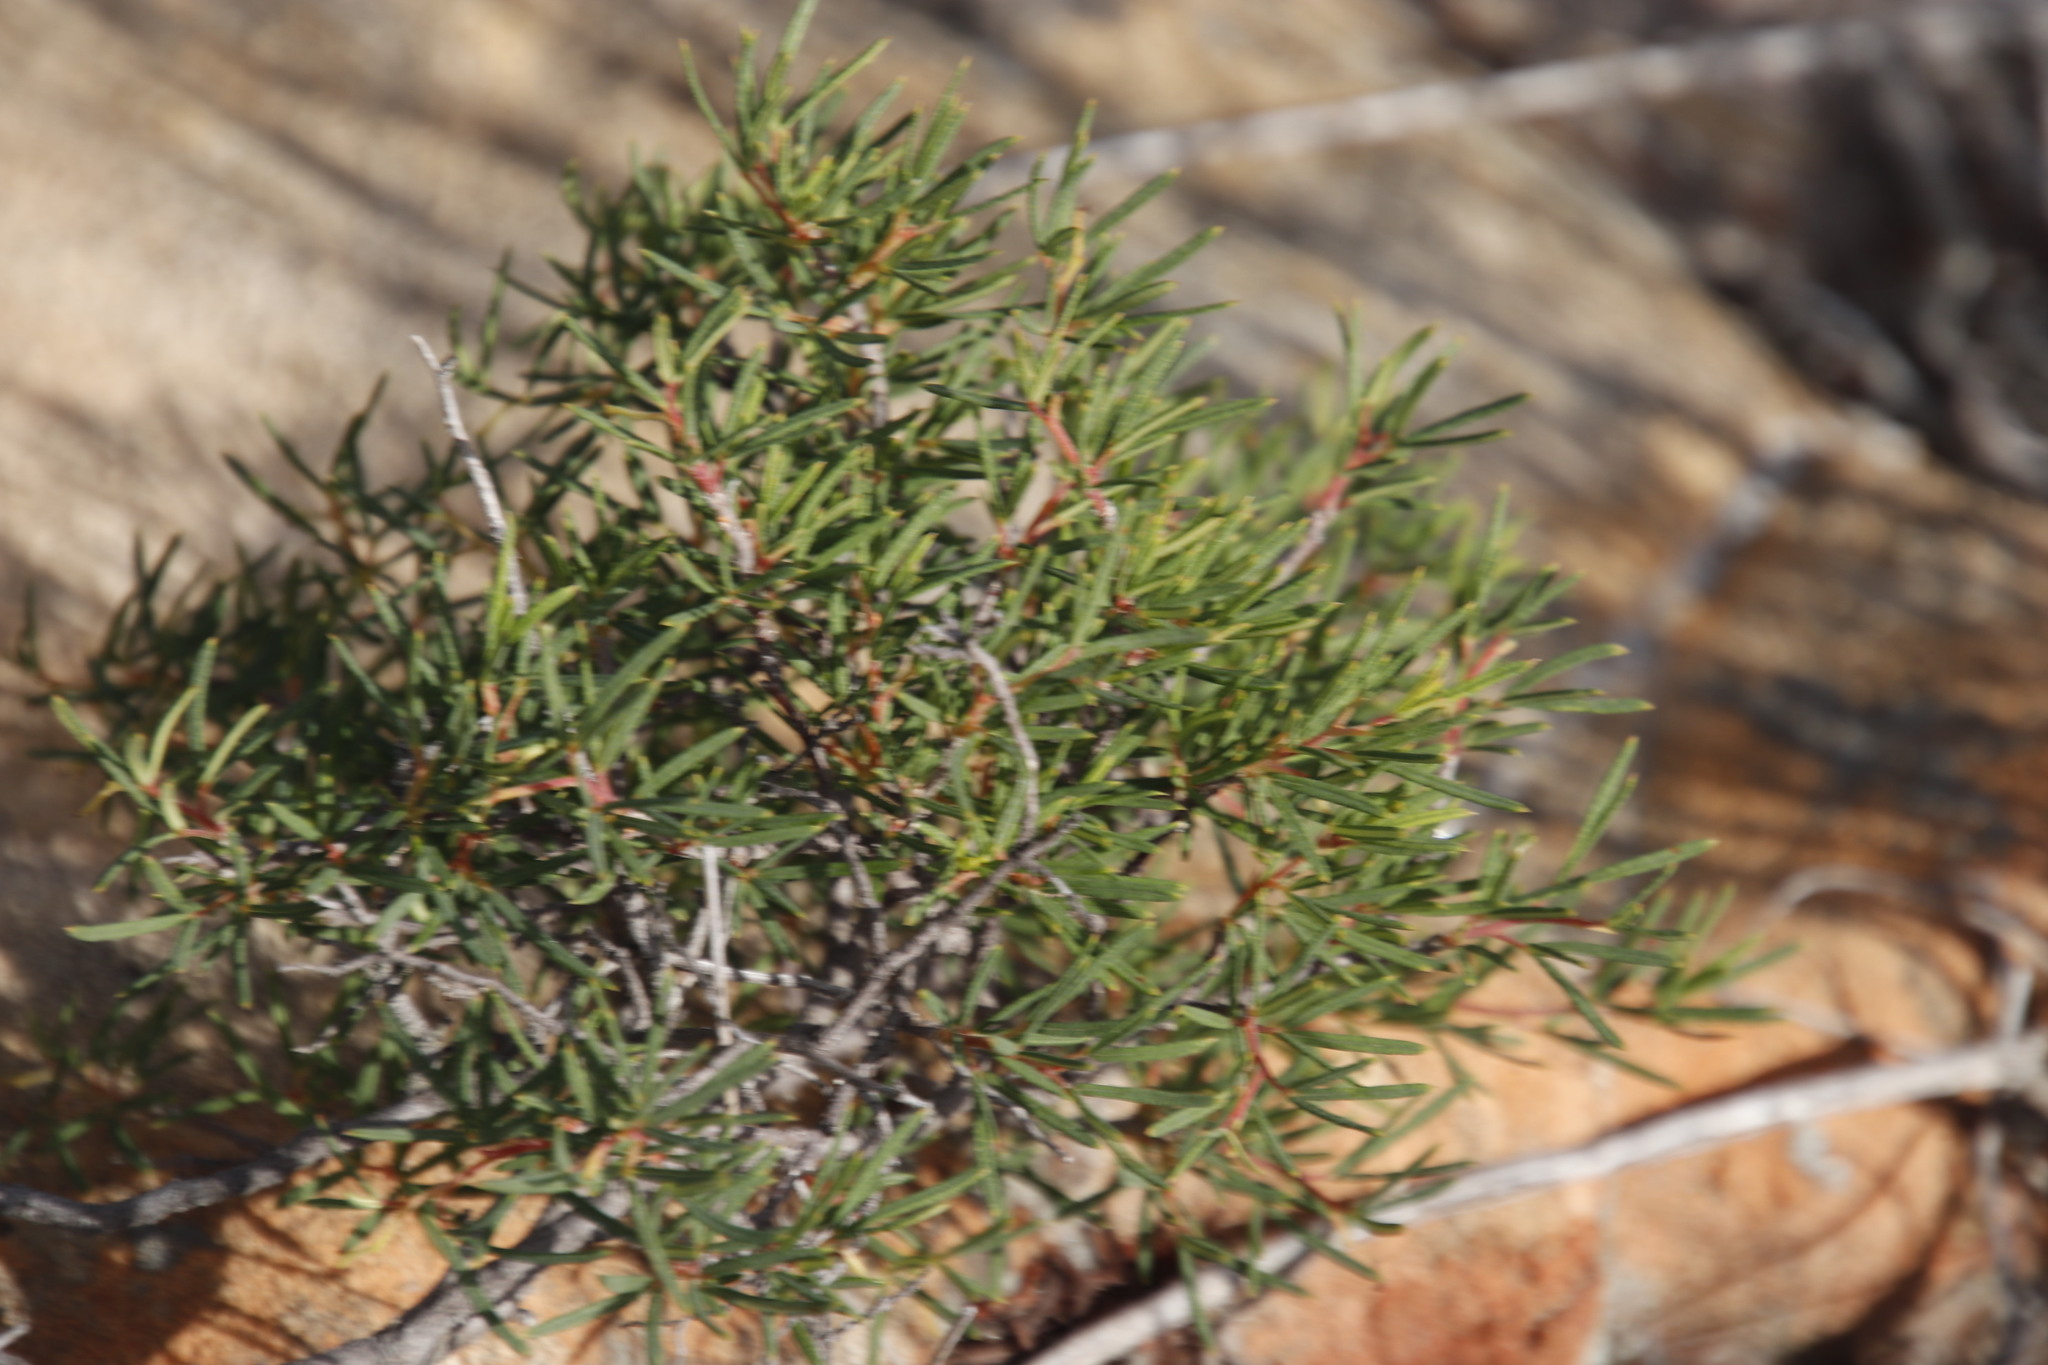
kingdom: Plantae
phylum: Tracheophyta
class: Magnoliopsida
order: Sapindales
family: Anacardiaceae
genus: Searsia
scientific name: Searsia rosmarinifolia
